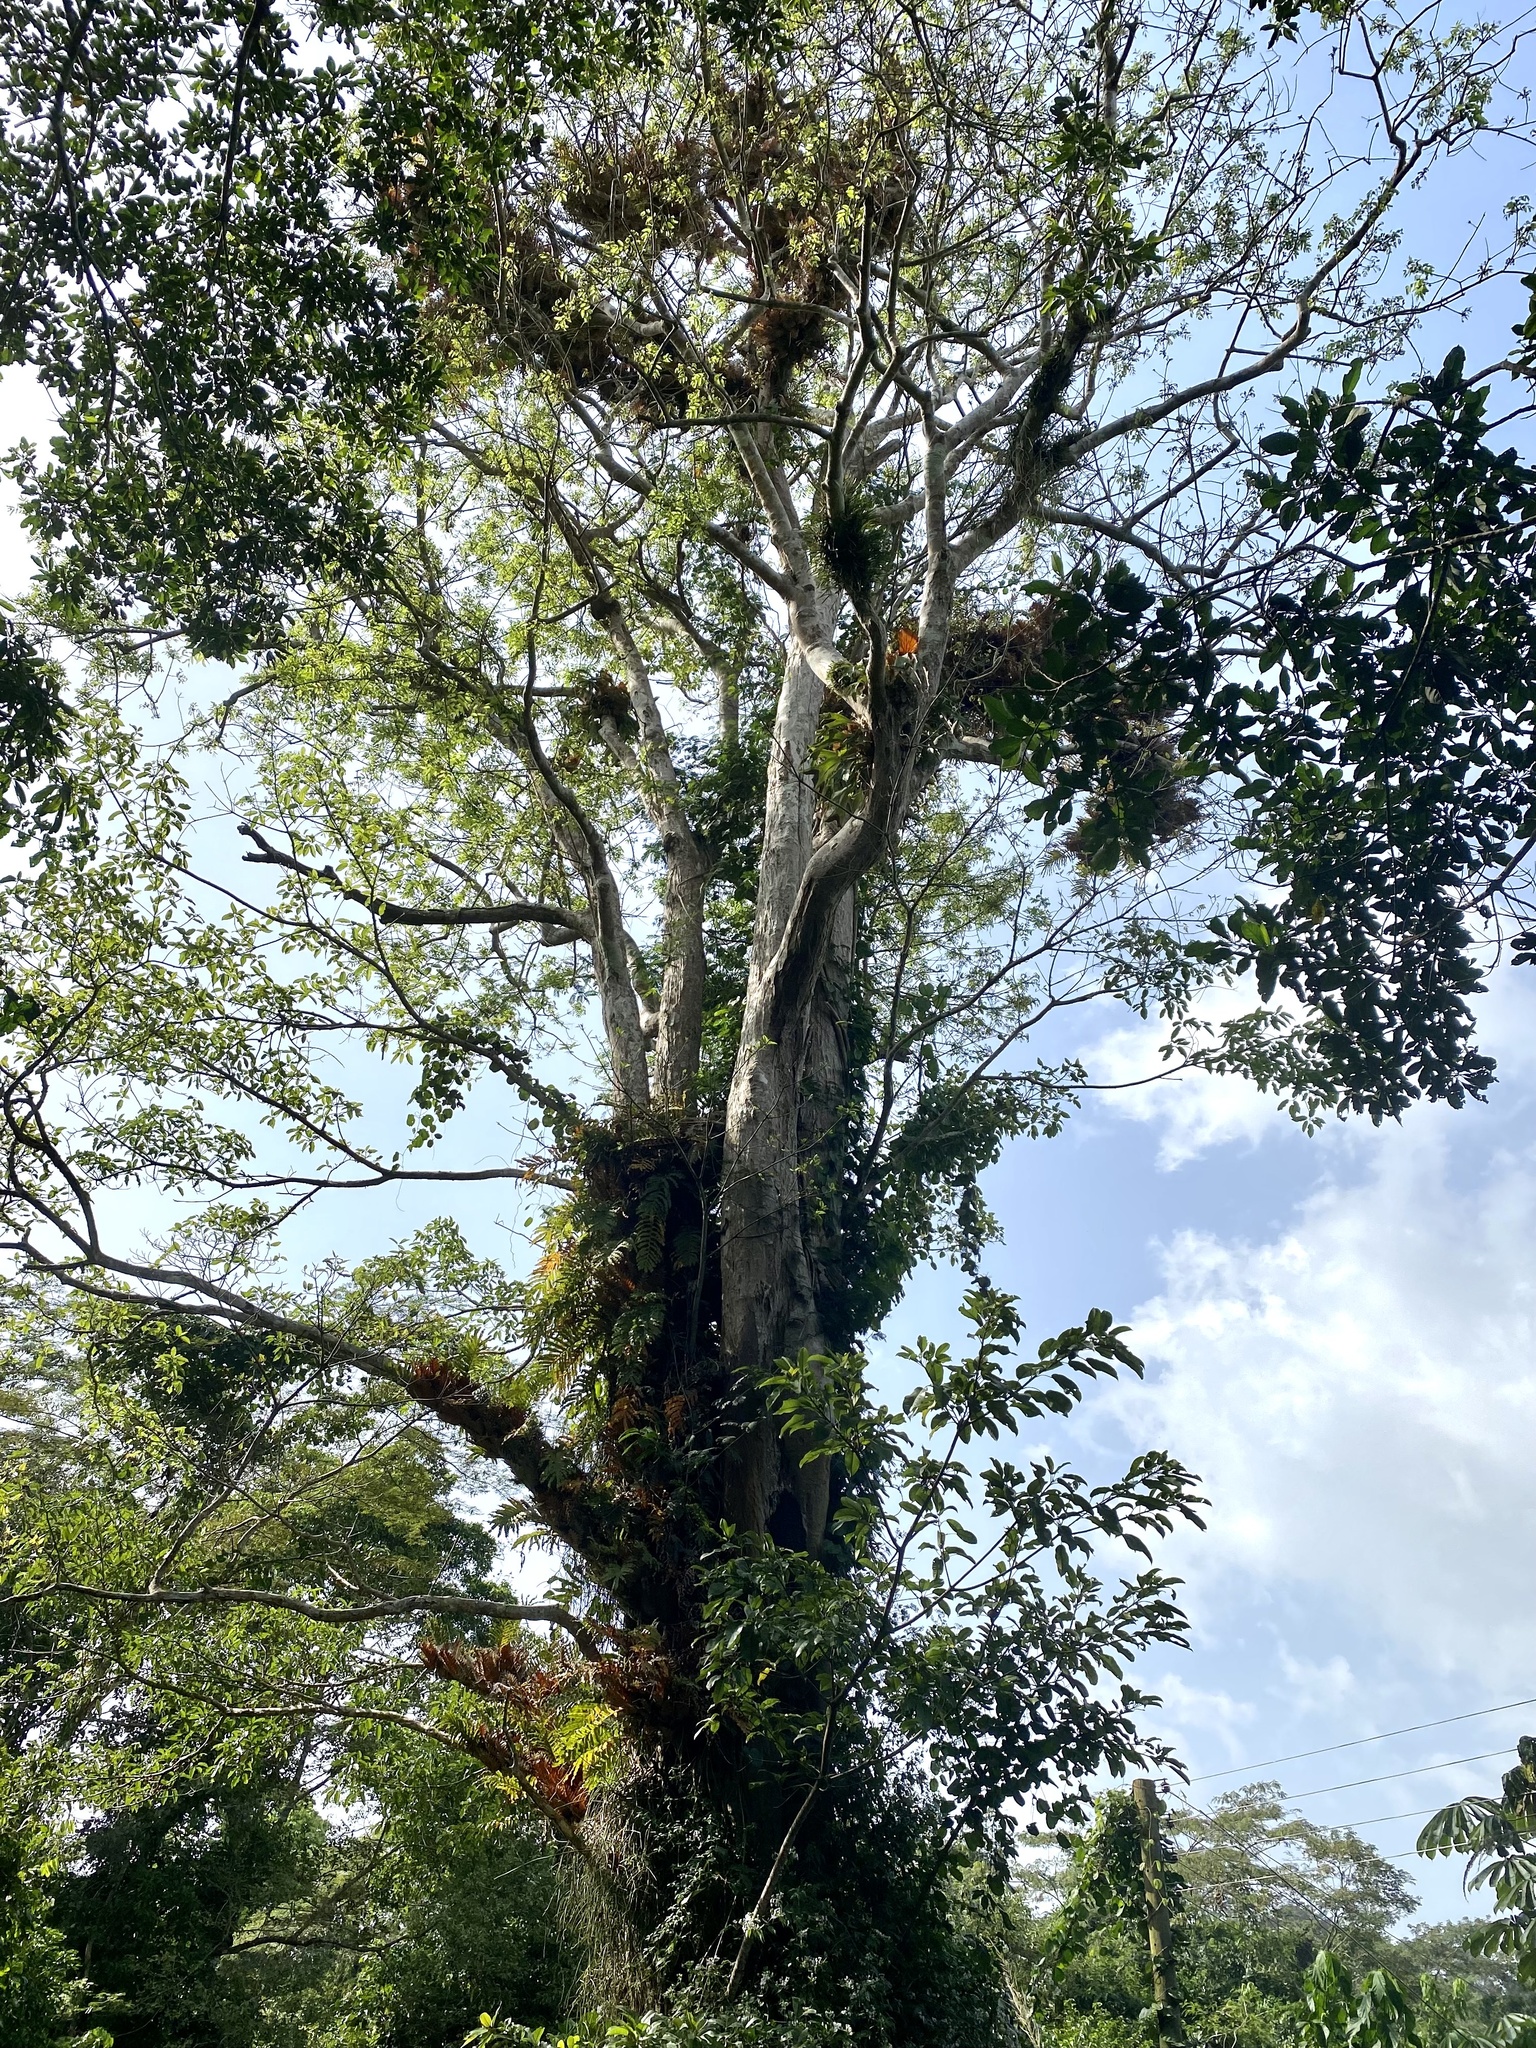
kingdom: Plantae
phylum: Tracheophyta
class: Magnoliopsida
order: Rosales
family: Moraceae
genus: Antiaris
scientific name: Antiaris toxicaria
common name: Sackingtree
